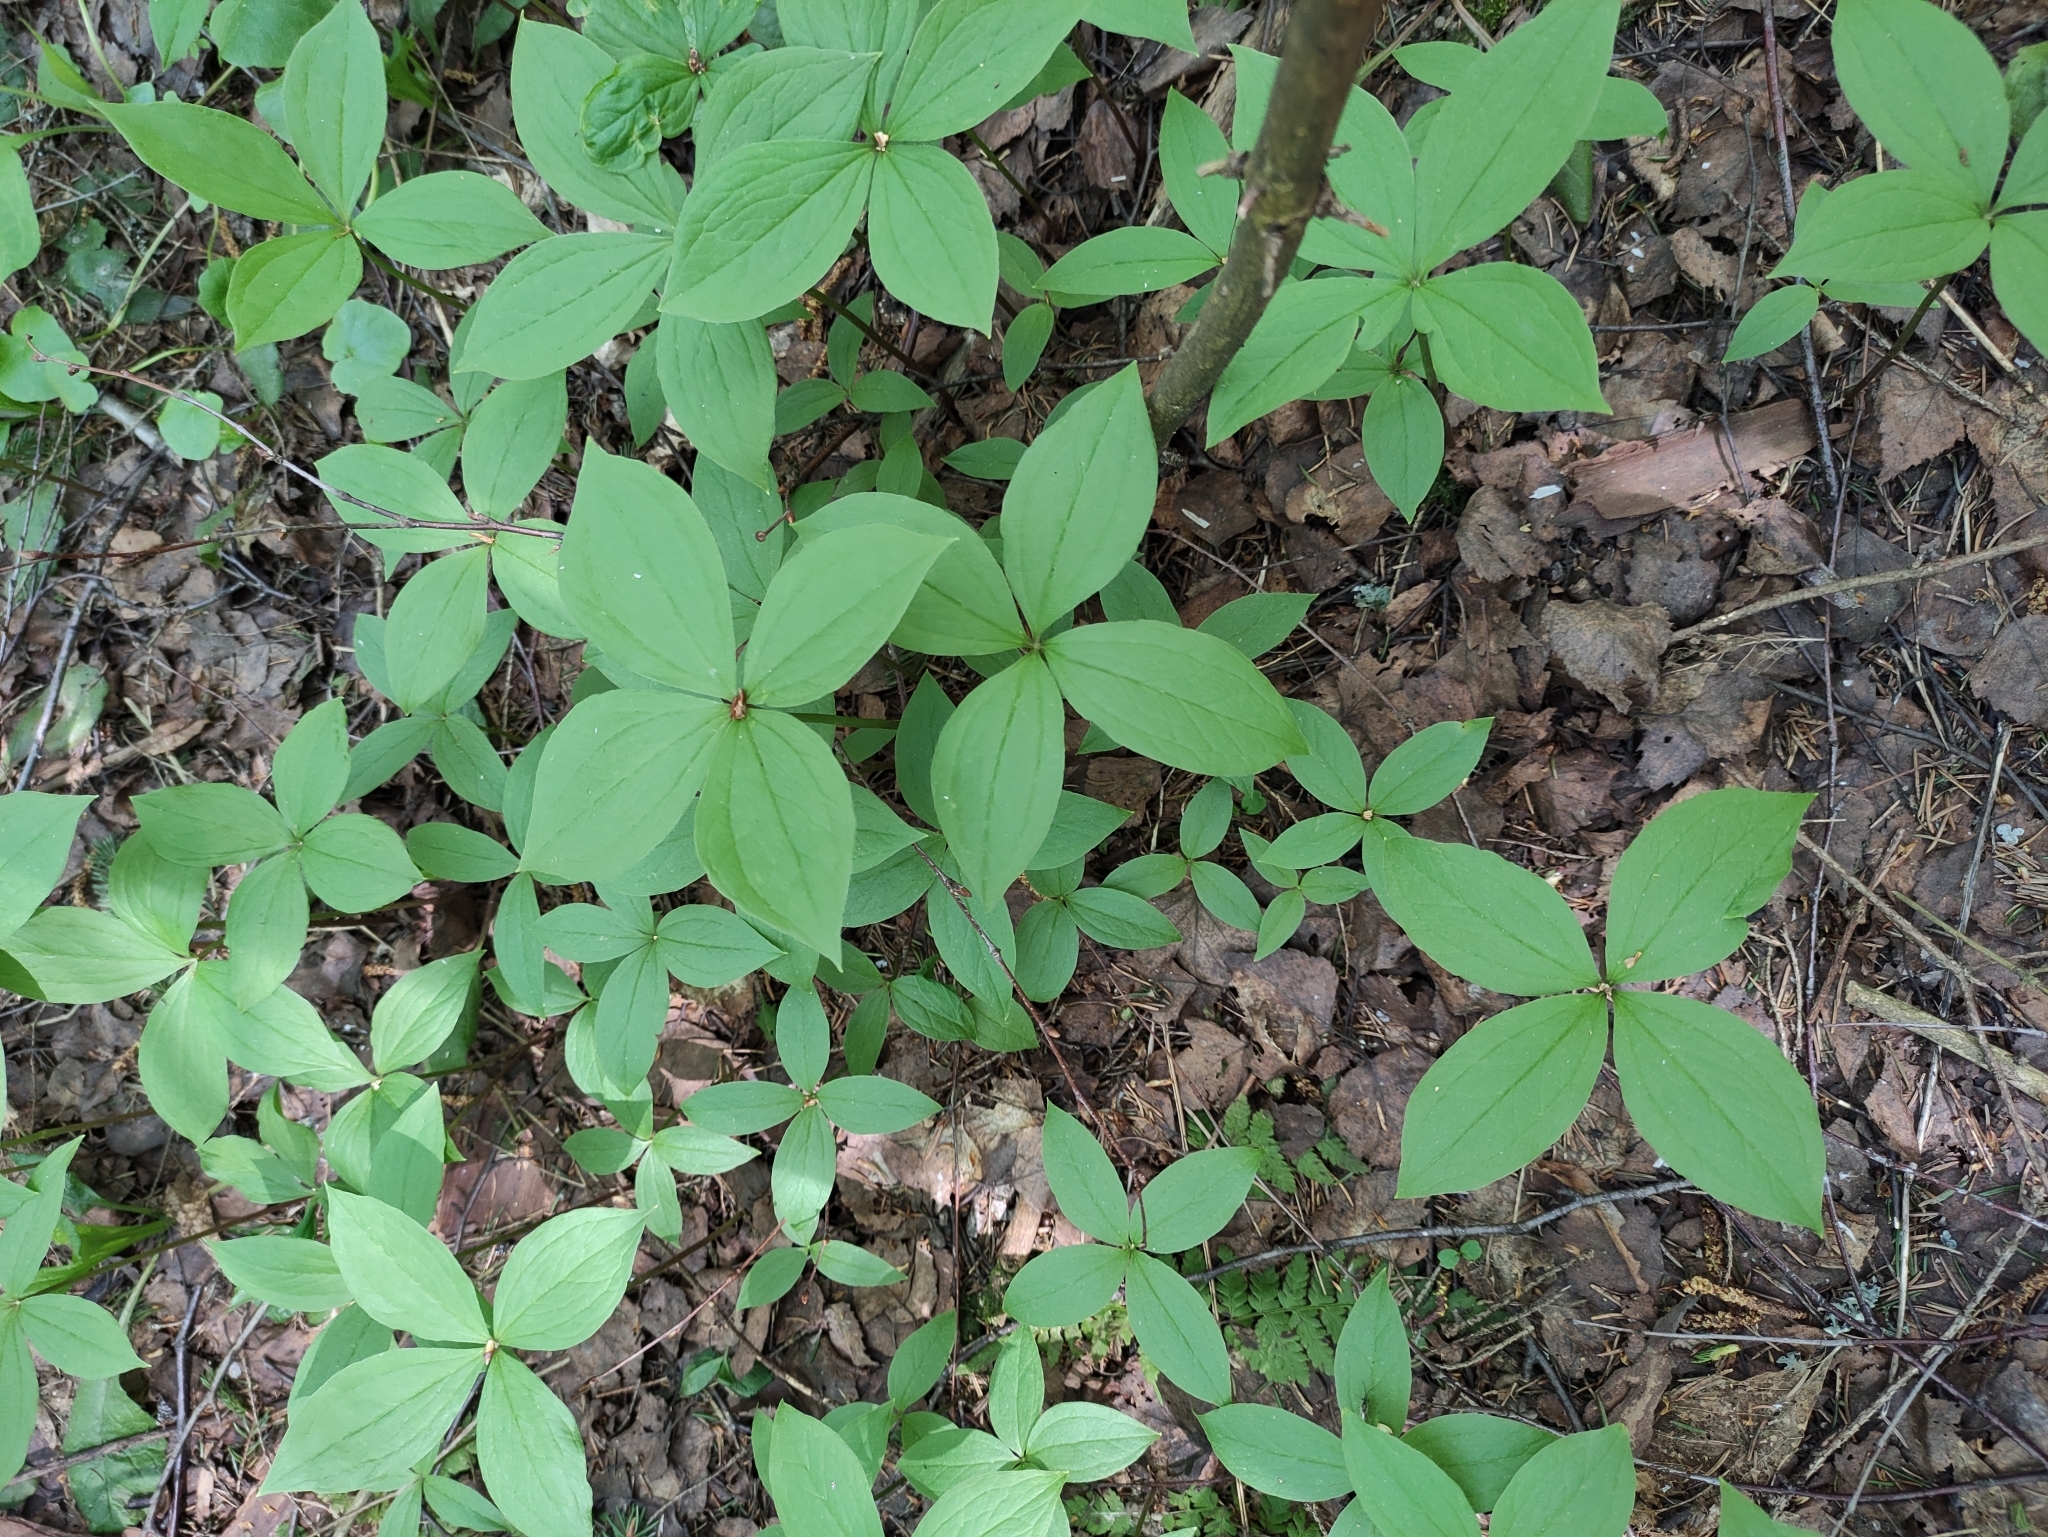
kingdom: Plantae
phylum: Tracheophyta
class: Liliopsida
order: Liliales
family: Melanthiaceae
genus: Paris
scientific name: Paris quadrifolia
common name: Herb-paris
